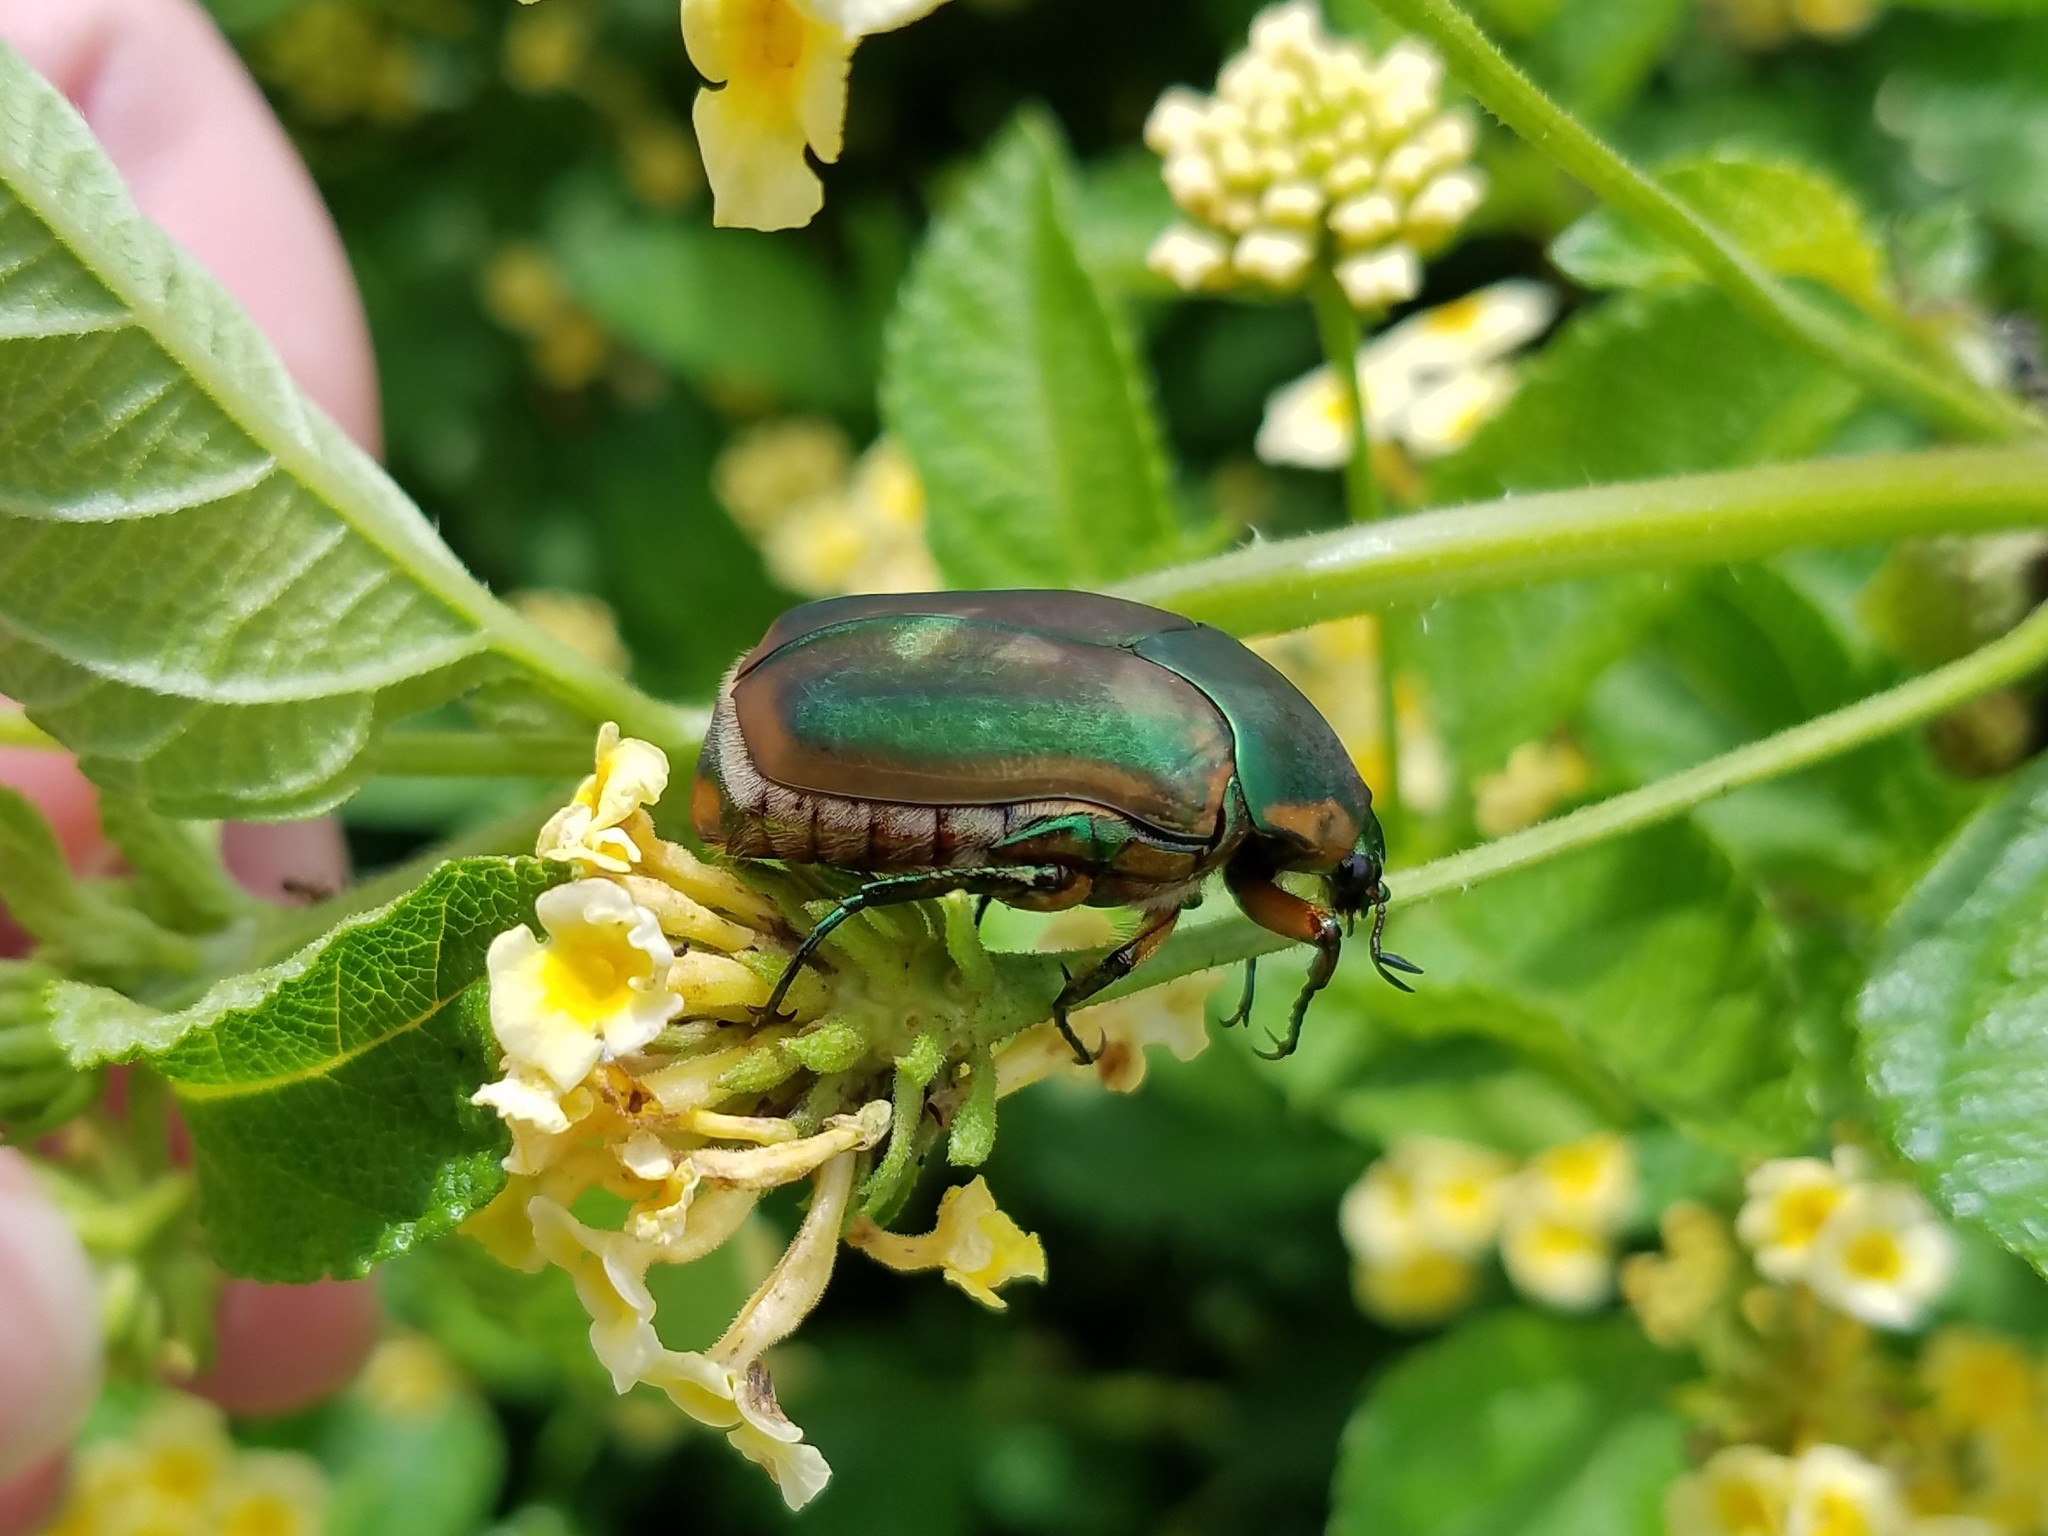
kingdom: Animalia
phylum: Arthropoda
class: Insecta
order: Coleoptera
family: Scarabaeidae
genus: Cotinis
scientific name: Cotinis nitida
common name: Common green june beetle
